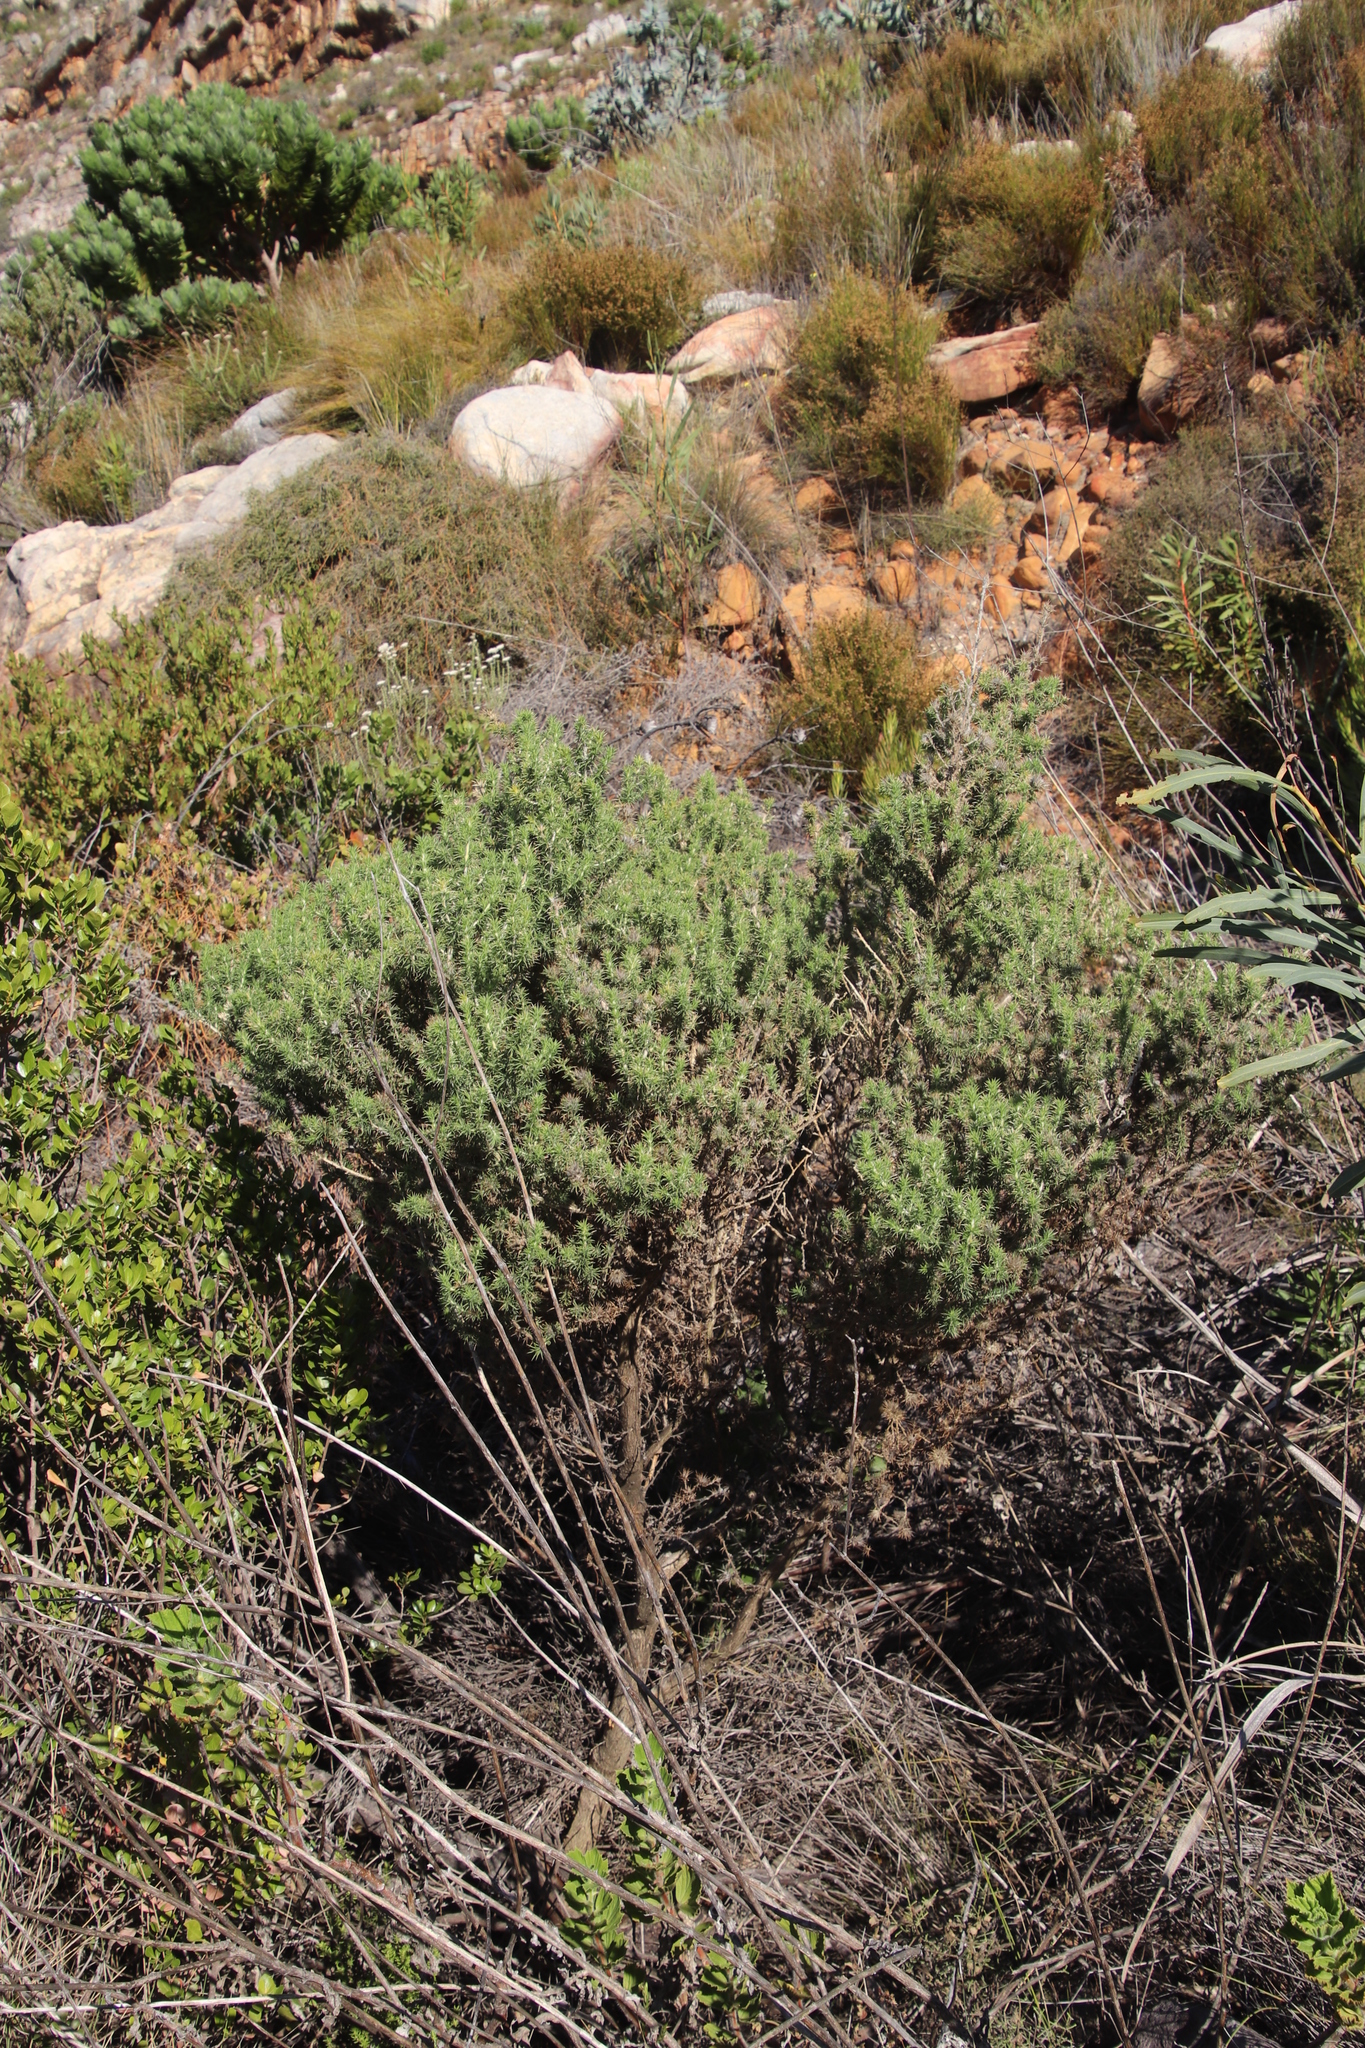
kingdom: Plantae
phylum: Tracheophyta
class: Magnoliopsida
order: Fabales
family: Fabaceae
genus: Aspalathus
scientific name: Aspalathus astroites
